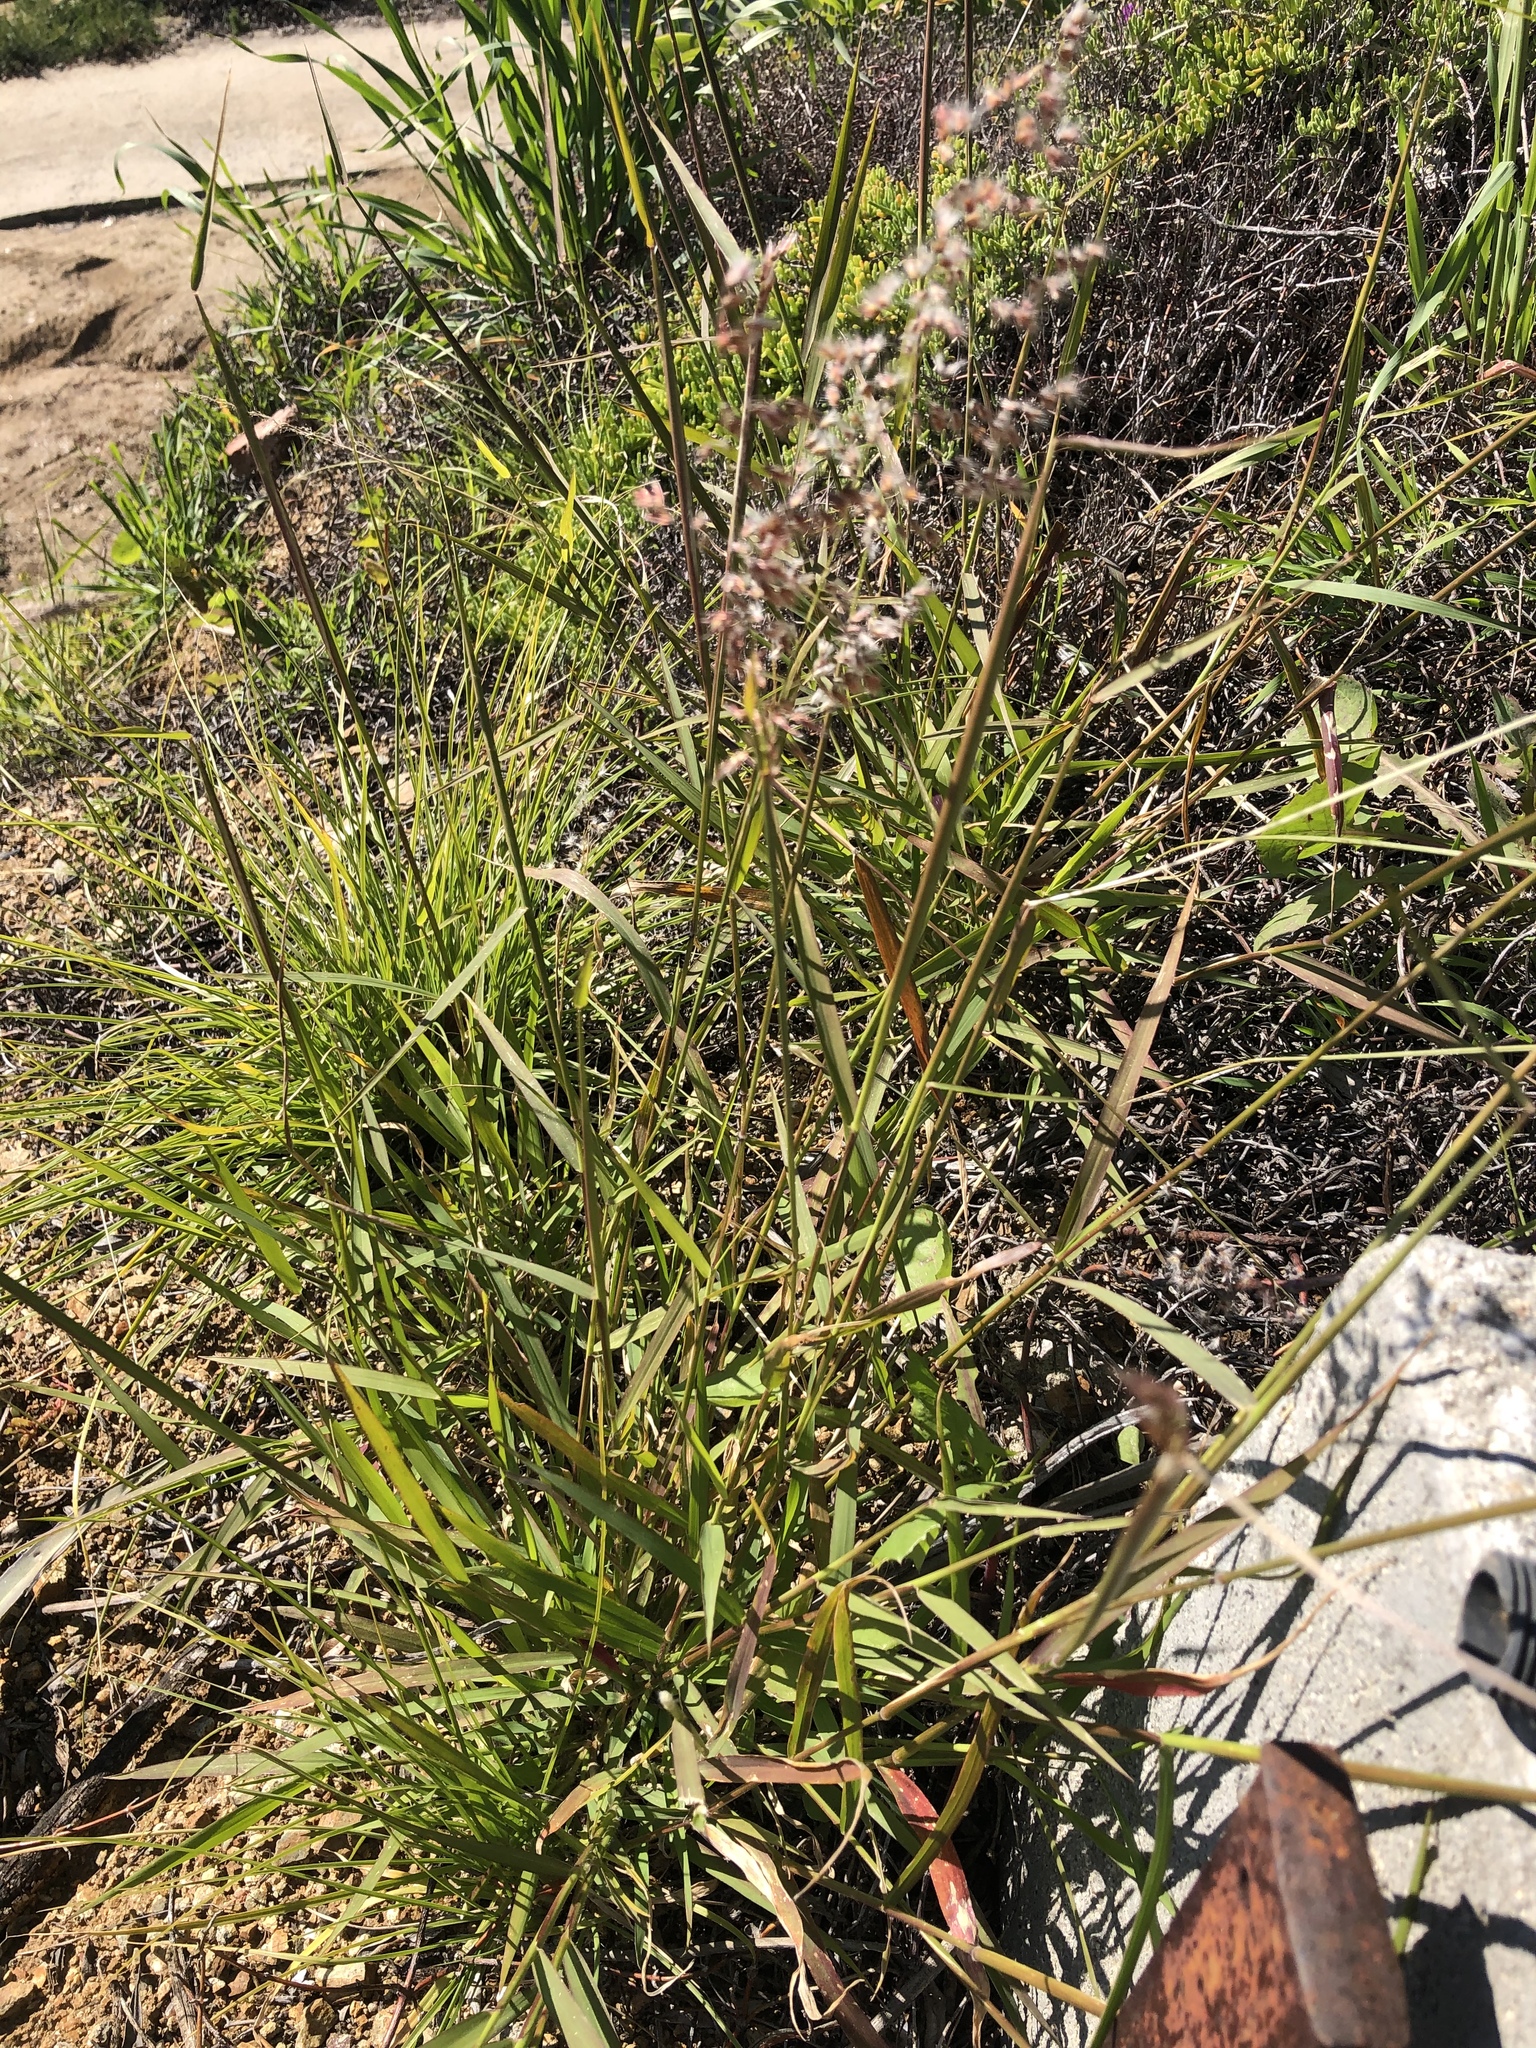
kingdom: Plantae
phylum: Tracheophyta
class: Liliopsida
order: Poales
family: Poaceae
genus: Melinis
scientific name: Melinis repens
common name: Rose natal grass
